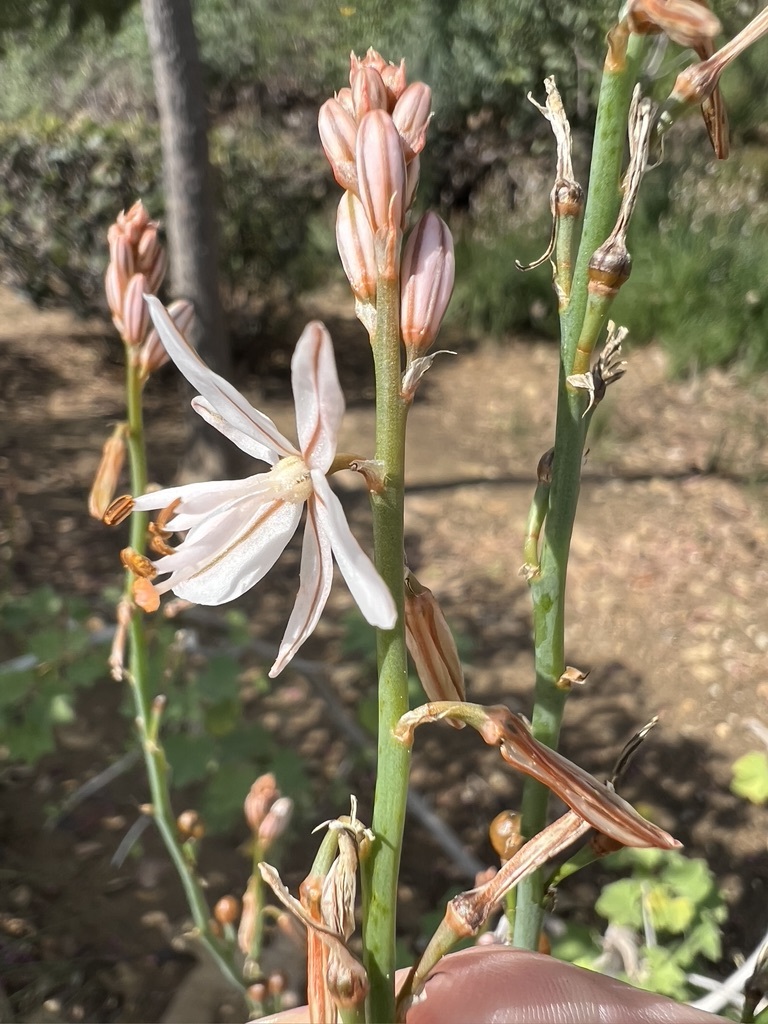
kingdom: Plantae
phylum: Tracheophyta
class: Liliopsida
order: Asparagales
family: Asphodelaceae
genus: Asphodelus
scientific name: Asphodelus fistulosus
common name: Onionweed
